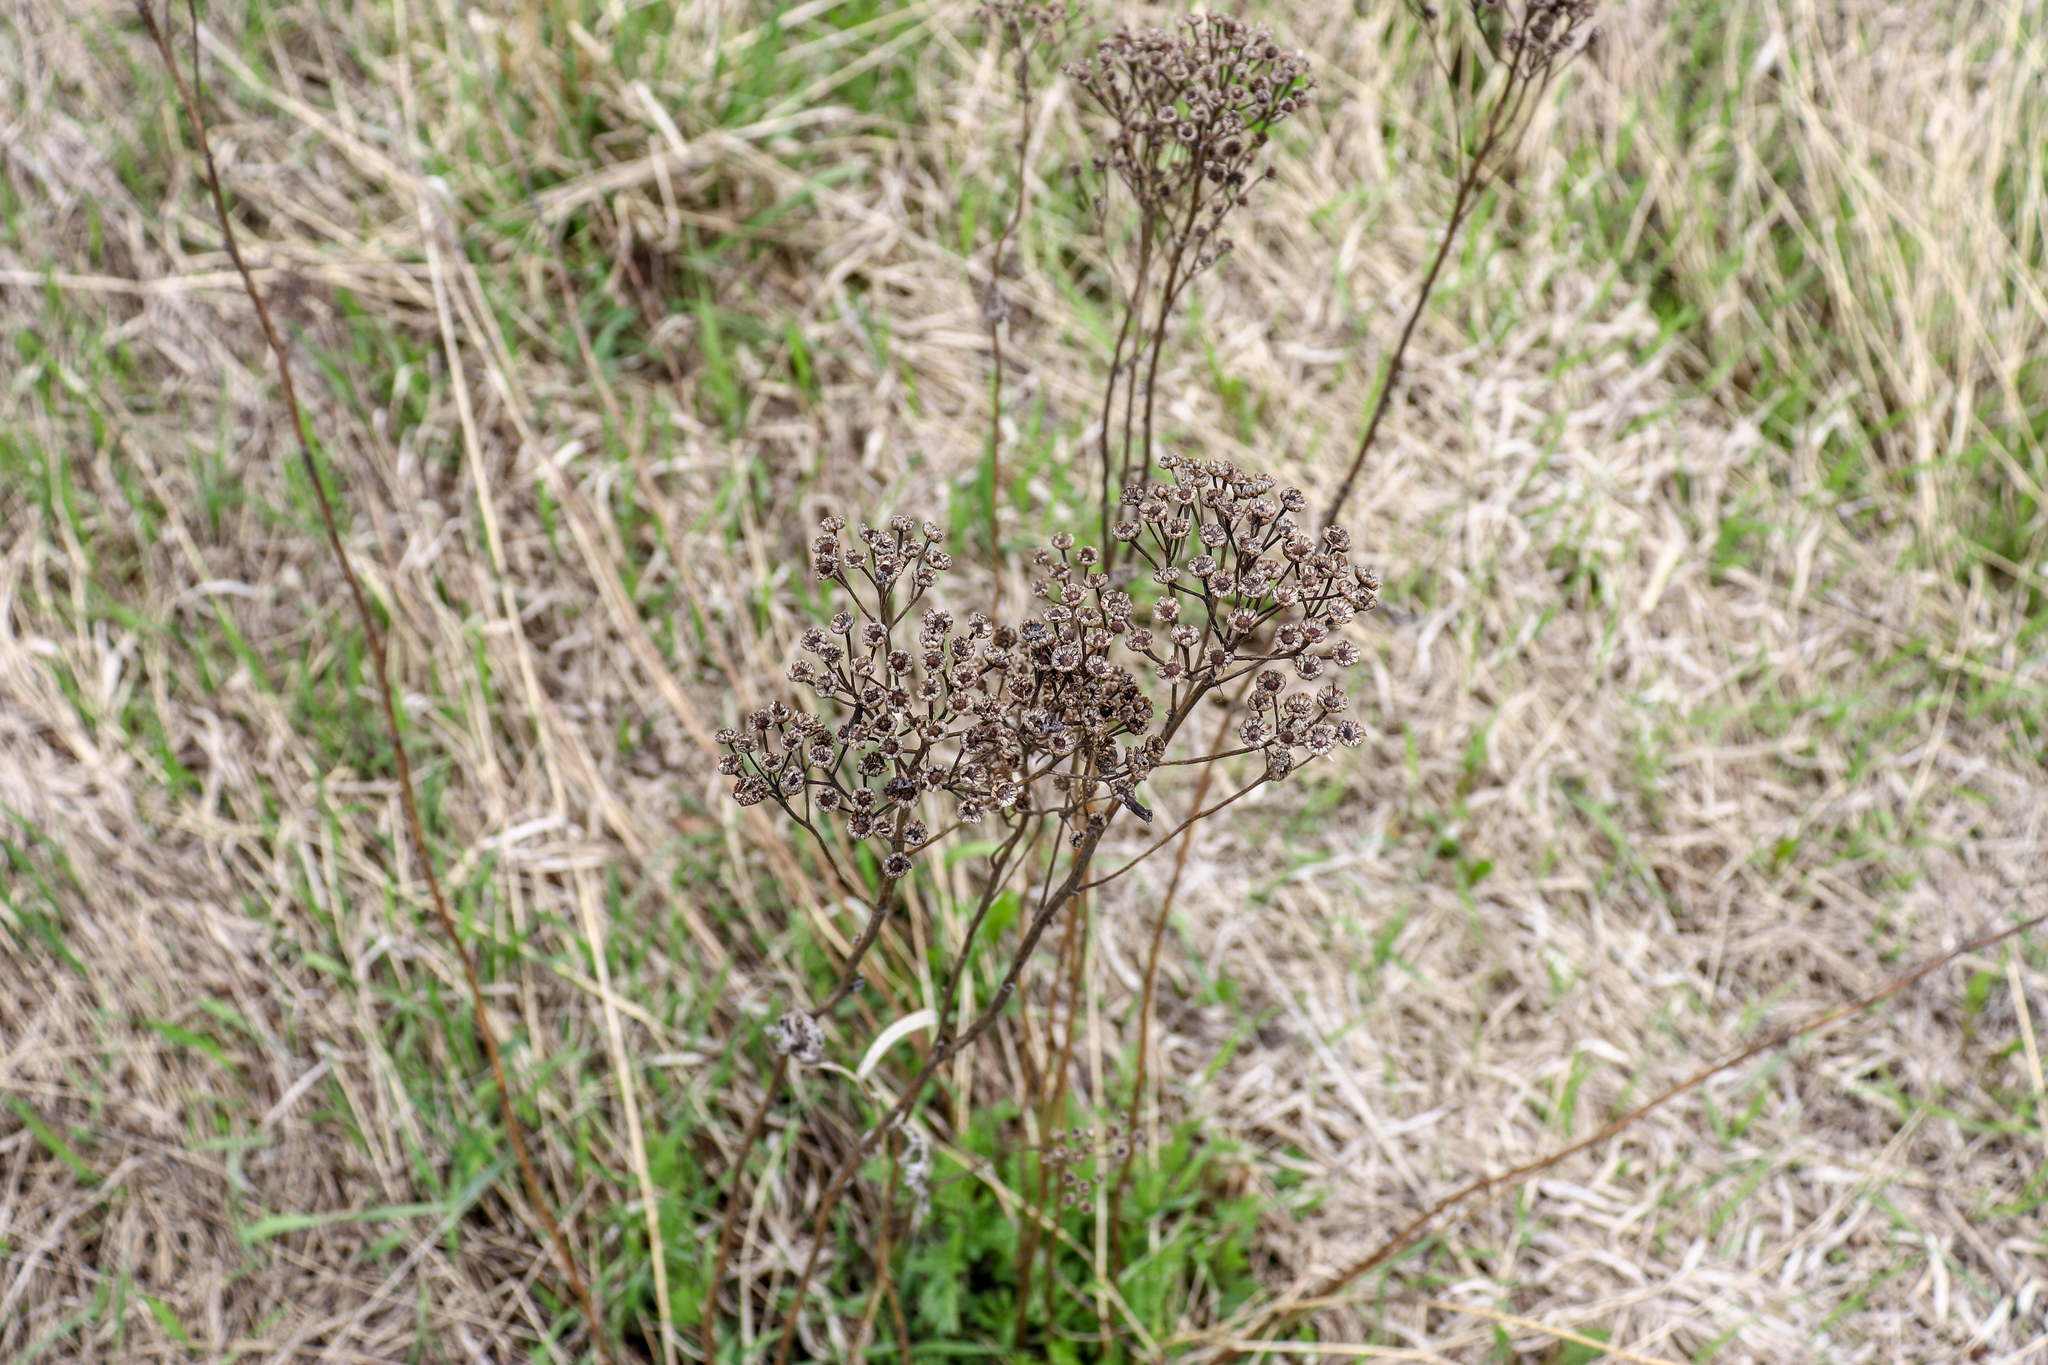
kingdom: Plantae
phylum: Tracheophyta
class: Magnoliopsida
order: Asterales
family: Asteraceae
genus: Tanacetum
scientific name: Tanacetum vulgare
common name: Common tansy
